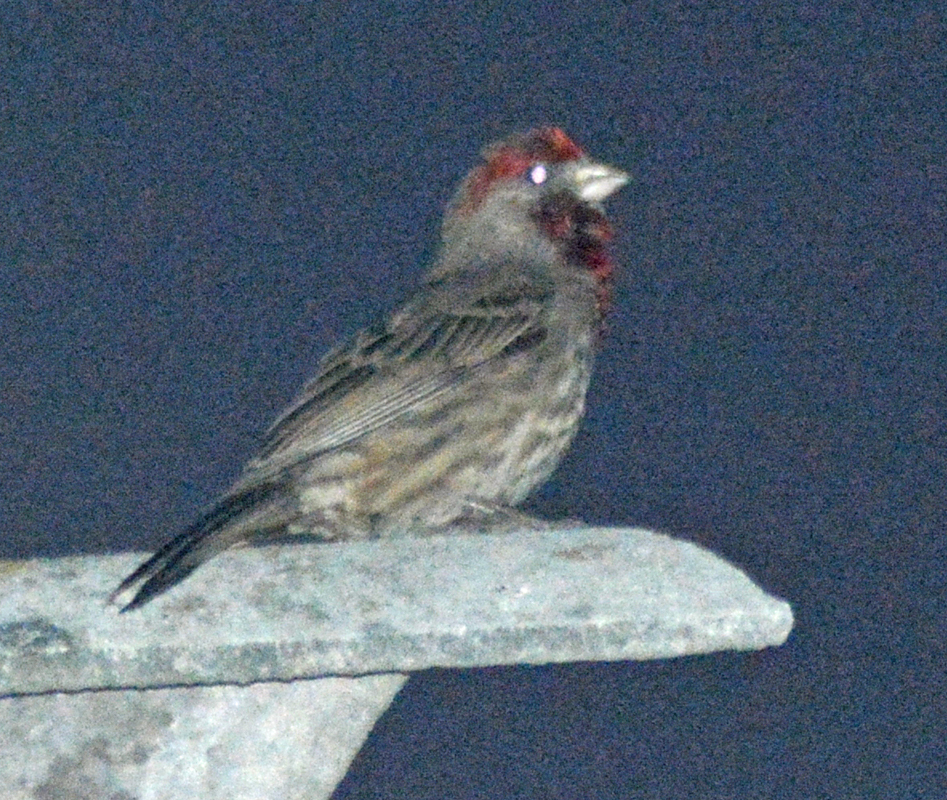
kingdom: Animalia
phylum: Chordata
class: Aves
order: Passeriformes
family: Fringillidae
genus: Haemorhous
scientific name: Haemorhous mexicanus
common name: House finch
